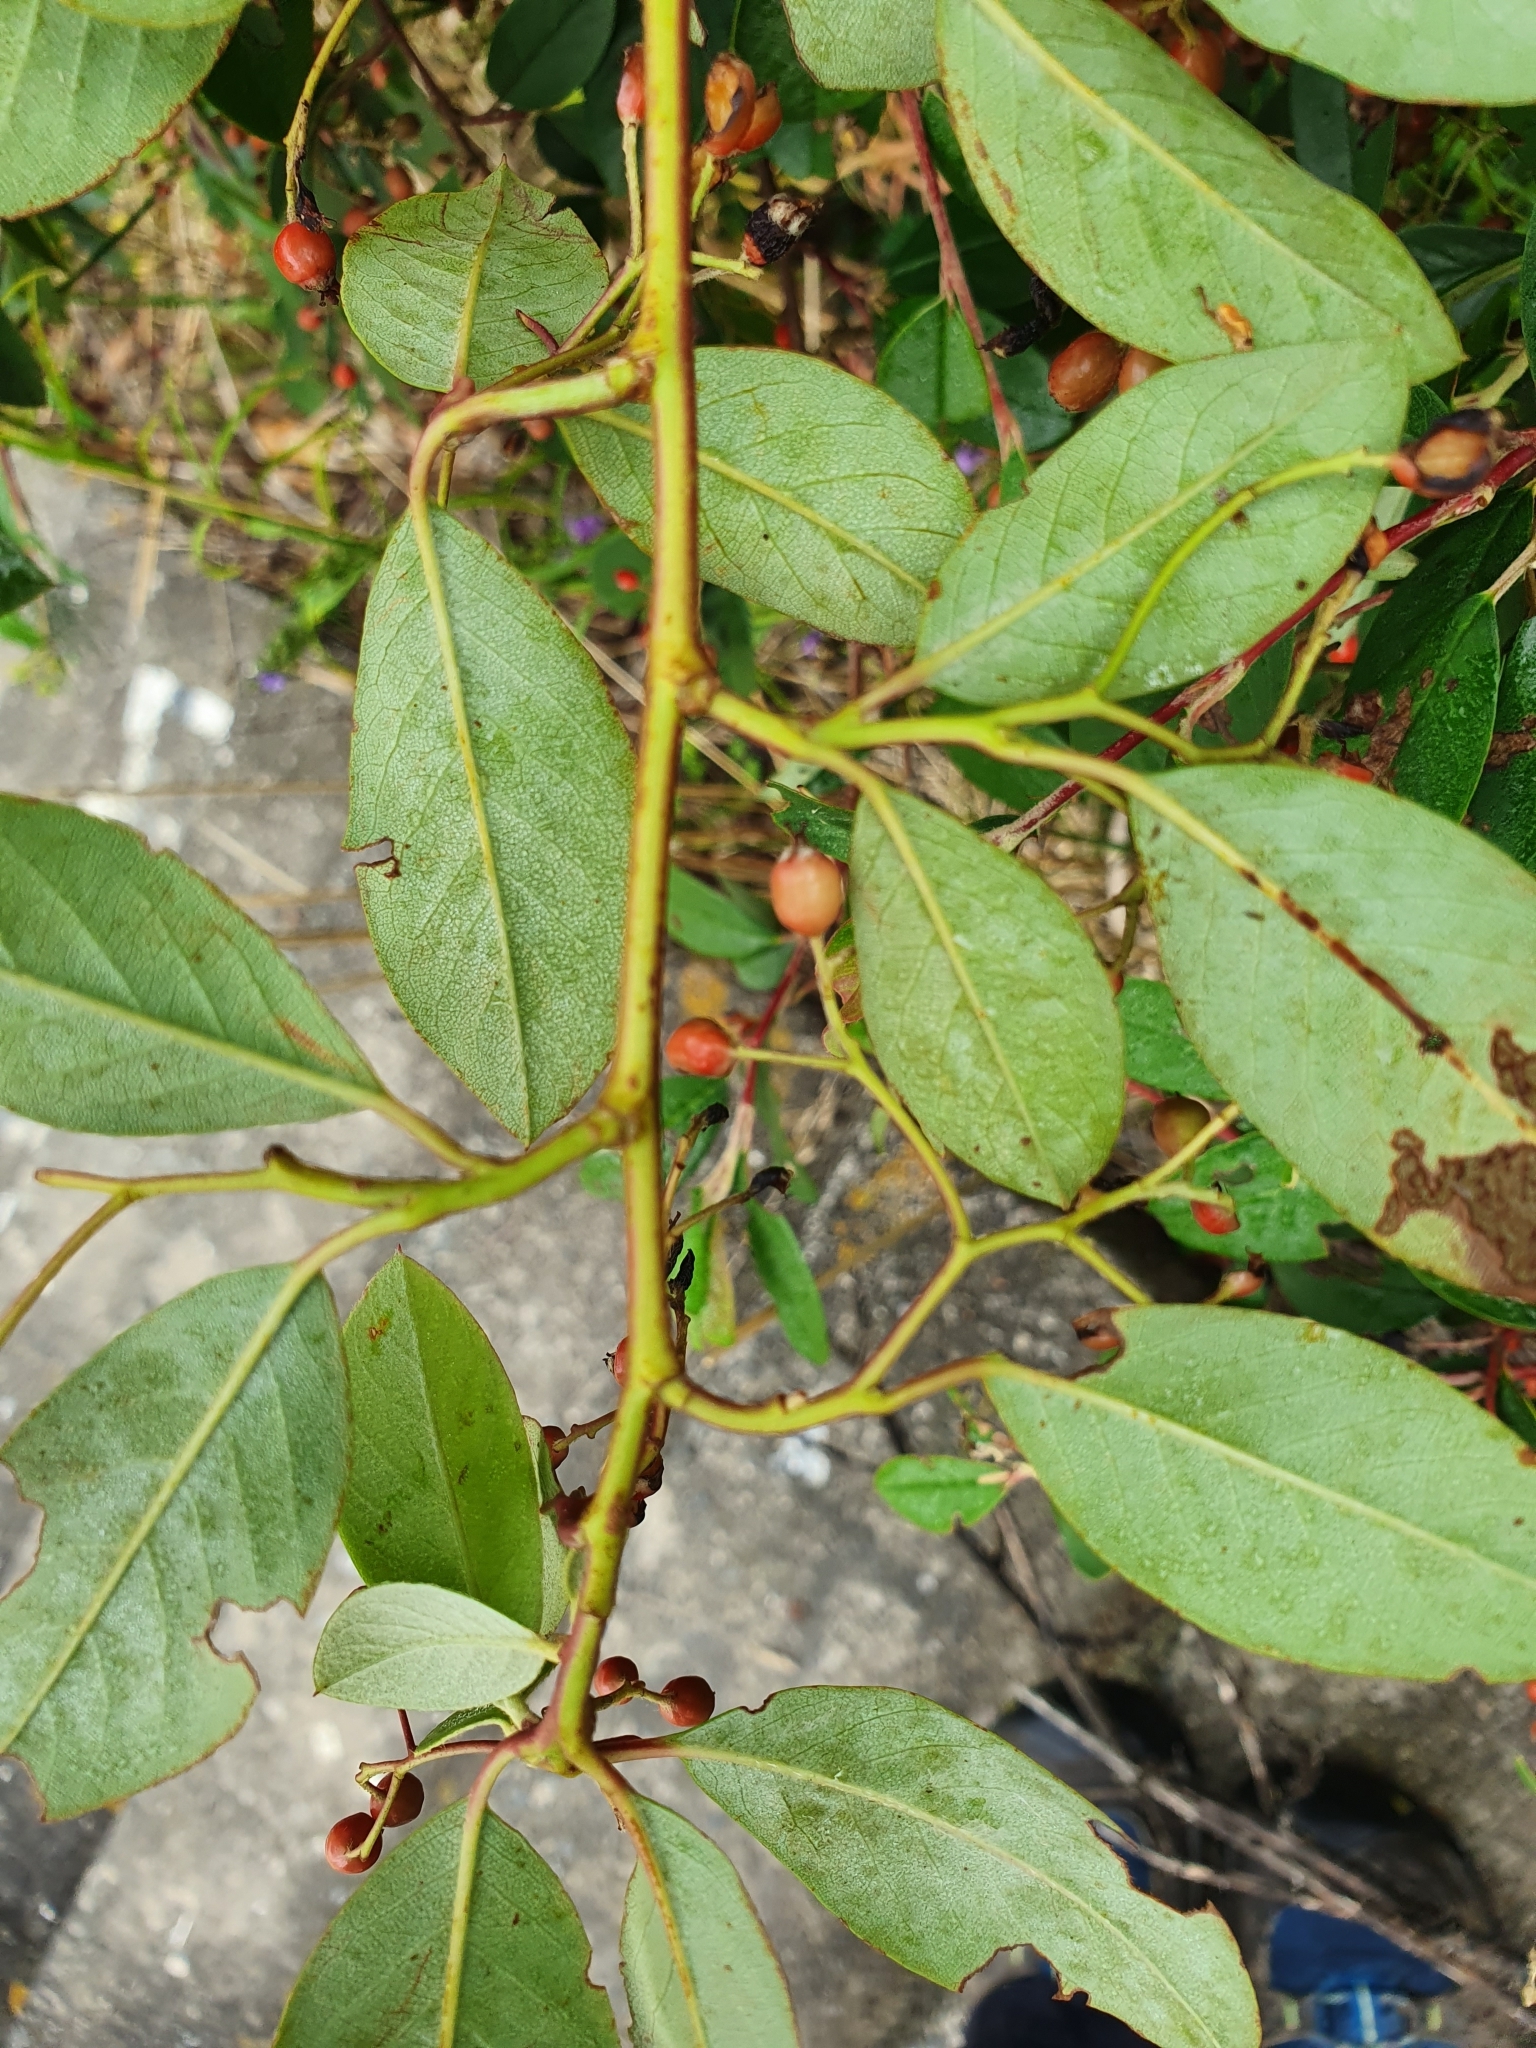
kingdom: Plantae
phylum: Tracheophyta
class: Magnoliopsida
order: Rosales
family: Rosaceae
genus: Cotoneaster
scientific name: Cotoneaster glaucophyllus
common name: Glaucous cotoneaster
